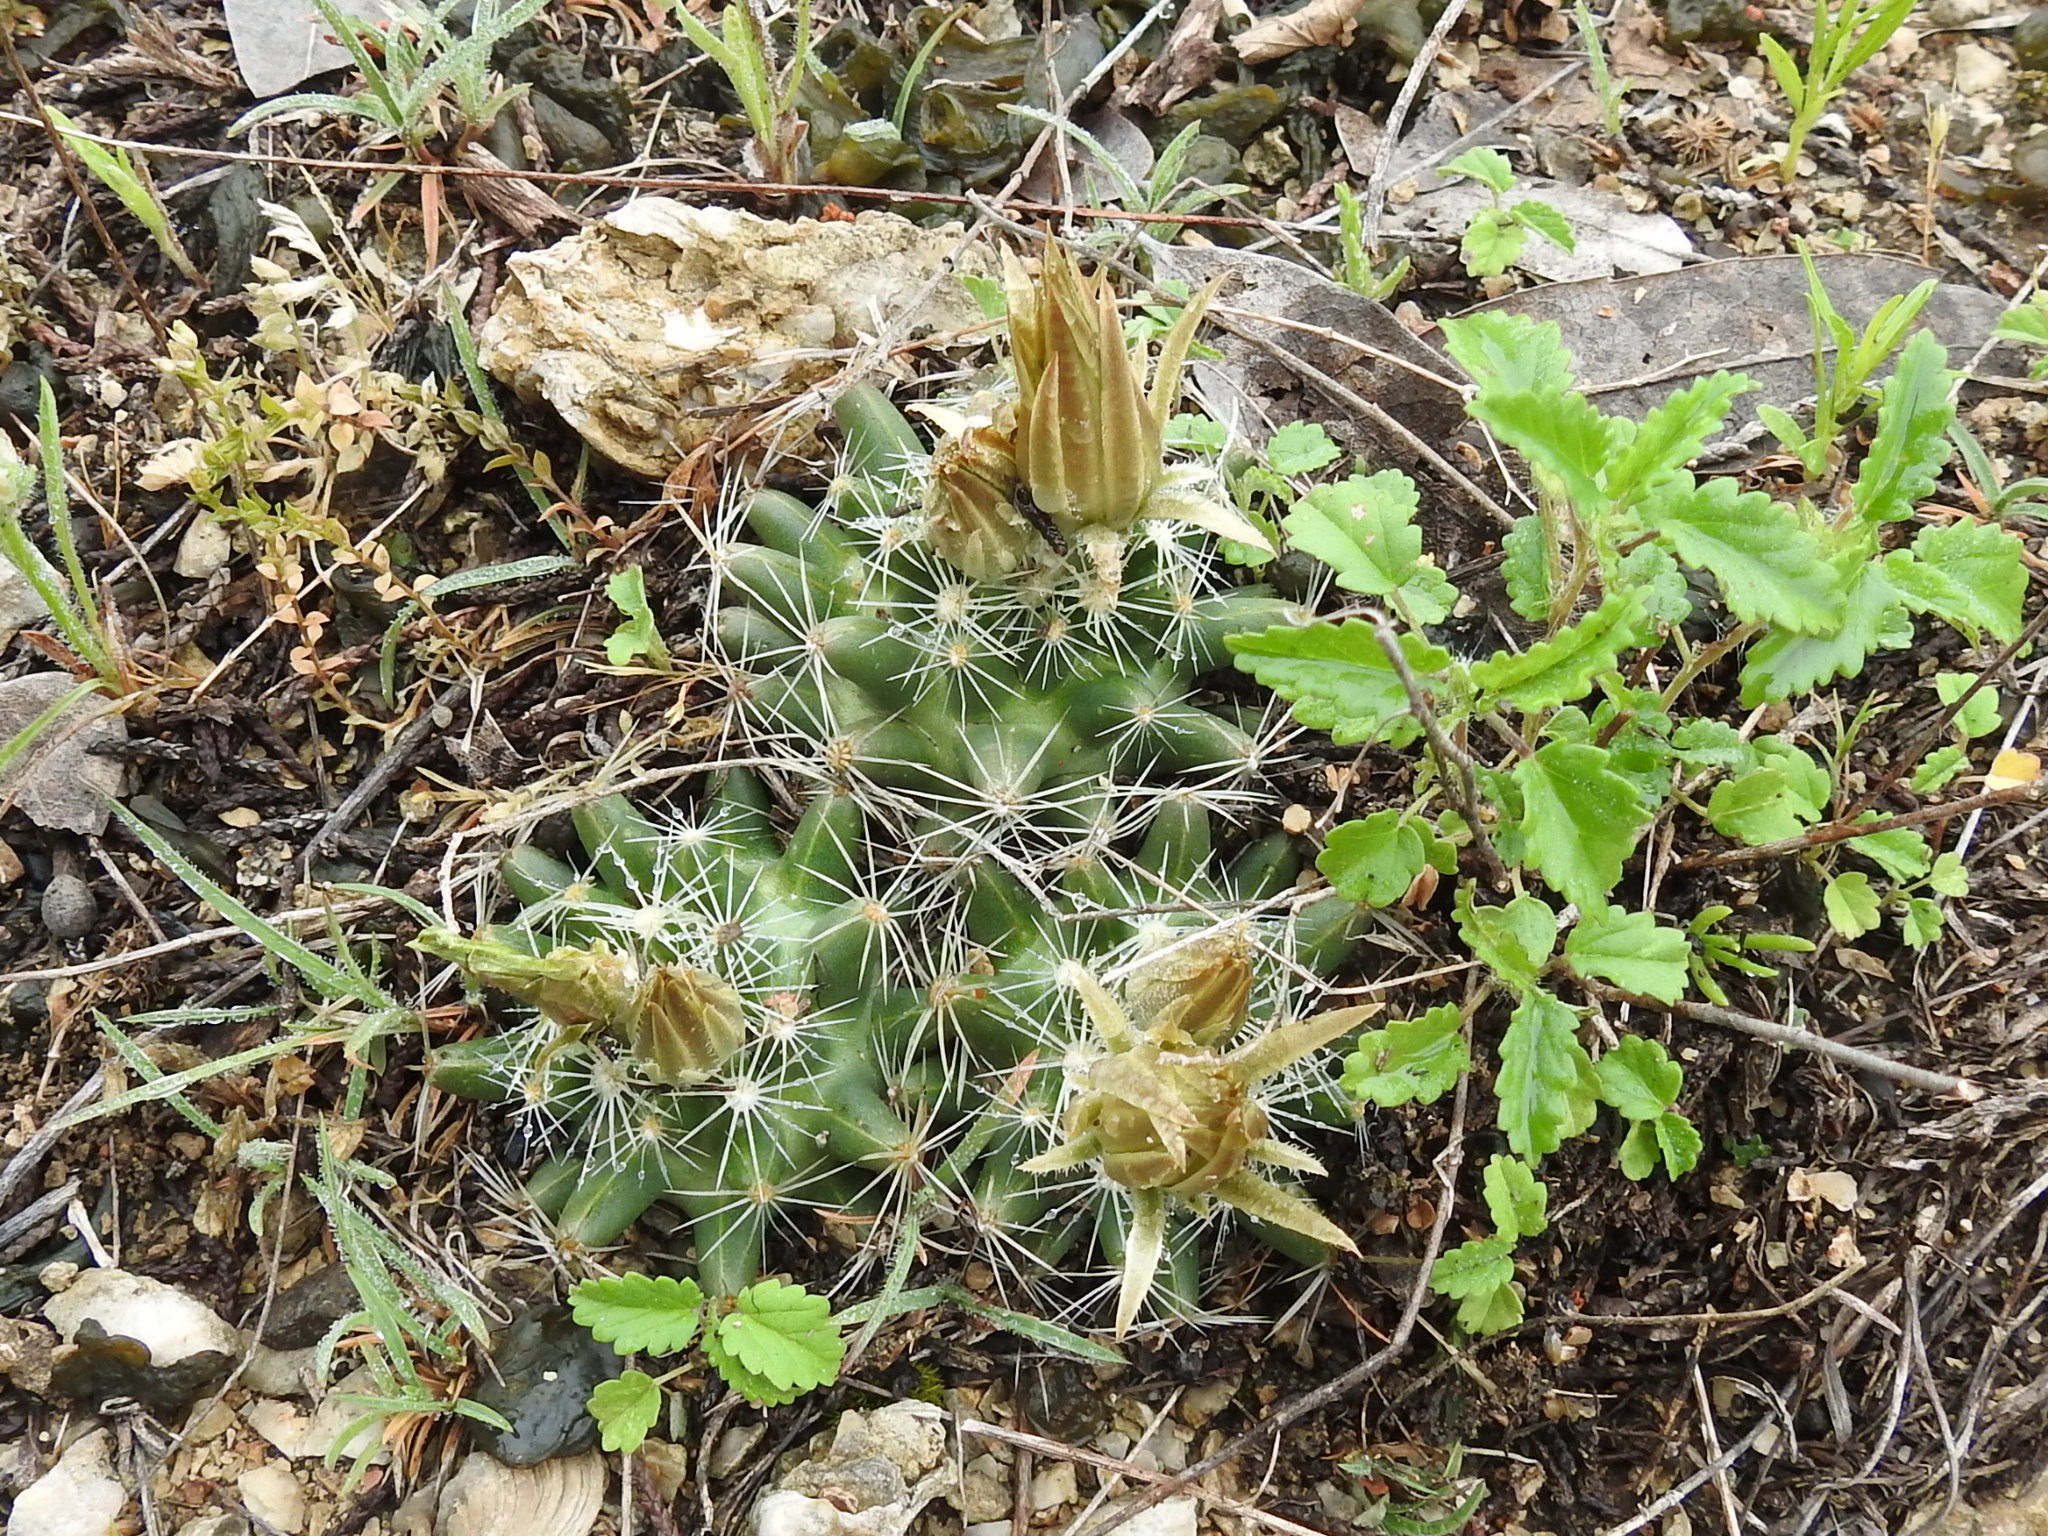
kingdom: Plantae
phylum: Tracheophyta
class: Magnoliopsida
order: Caryophyllales
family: Cactaceae
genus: Pelecyphora
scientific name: Pelecyphora missouriensis
